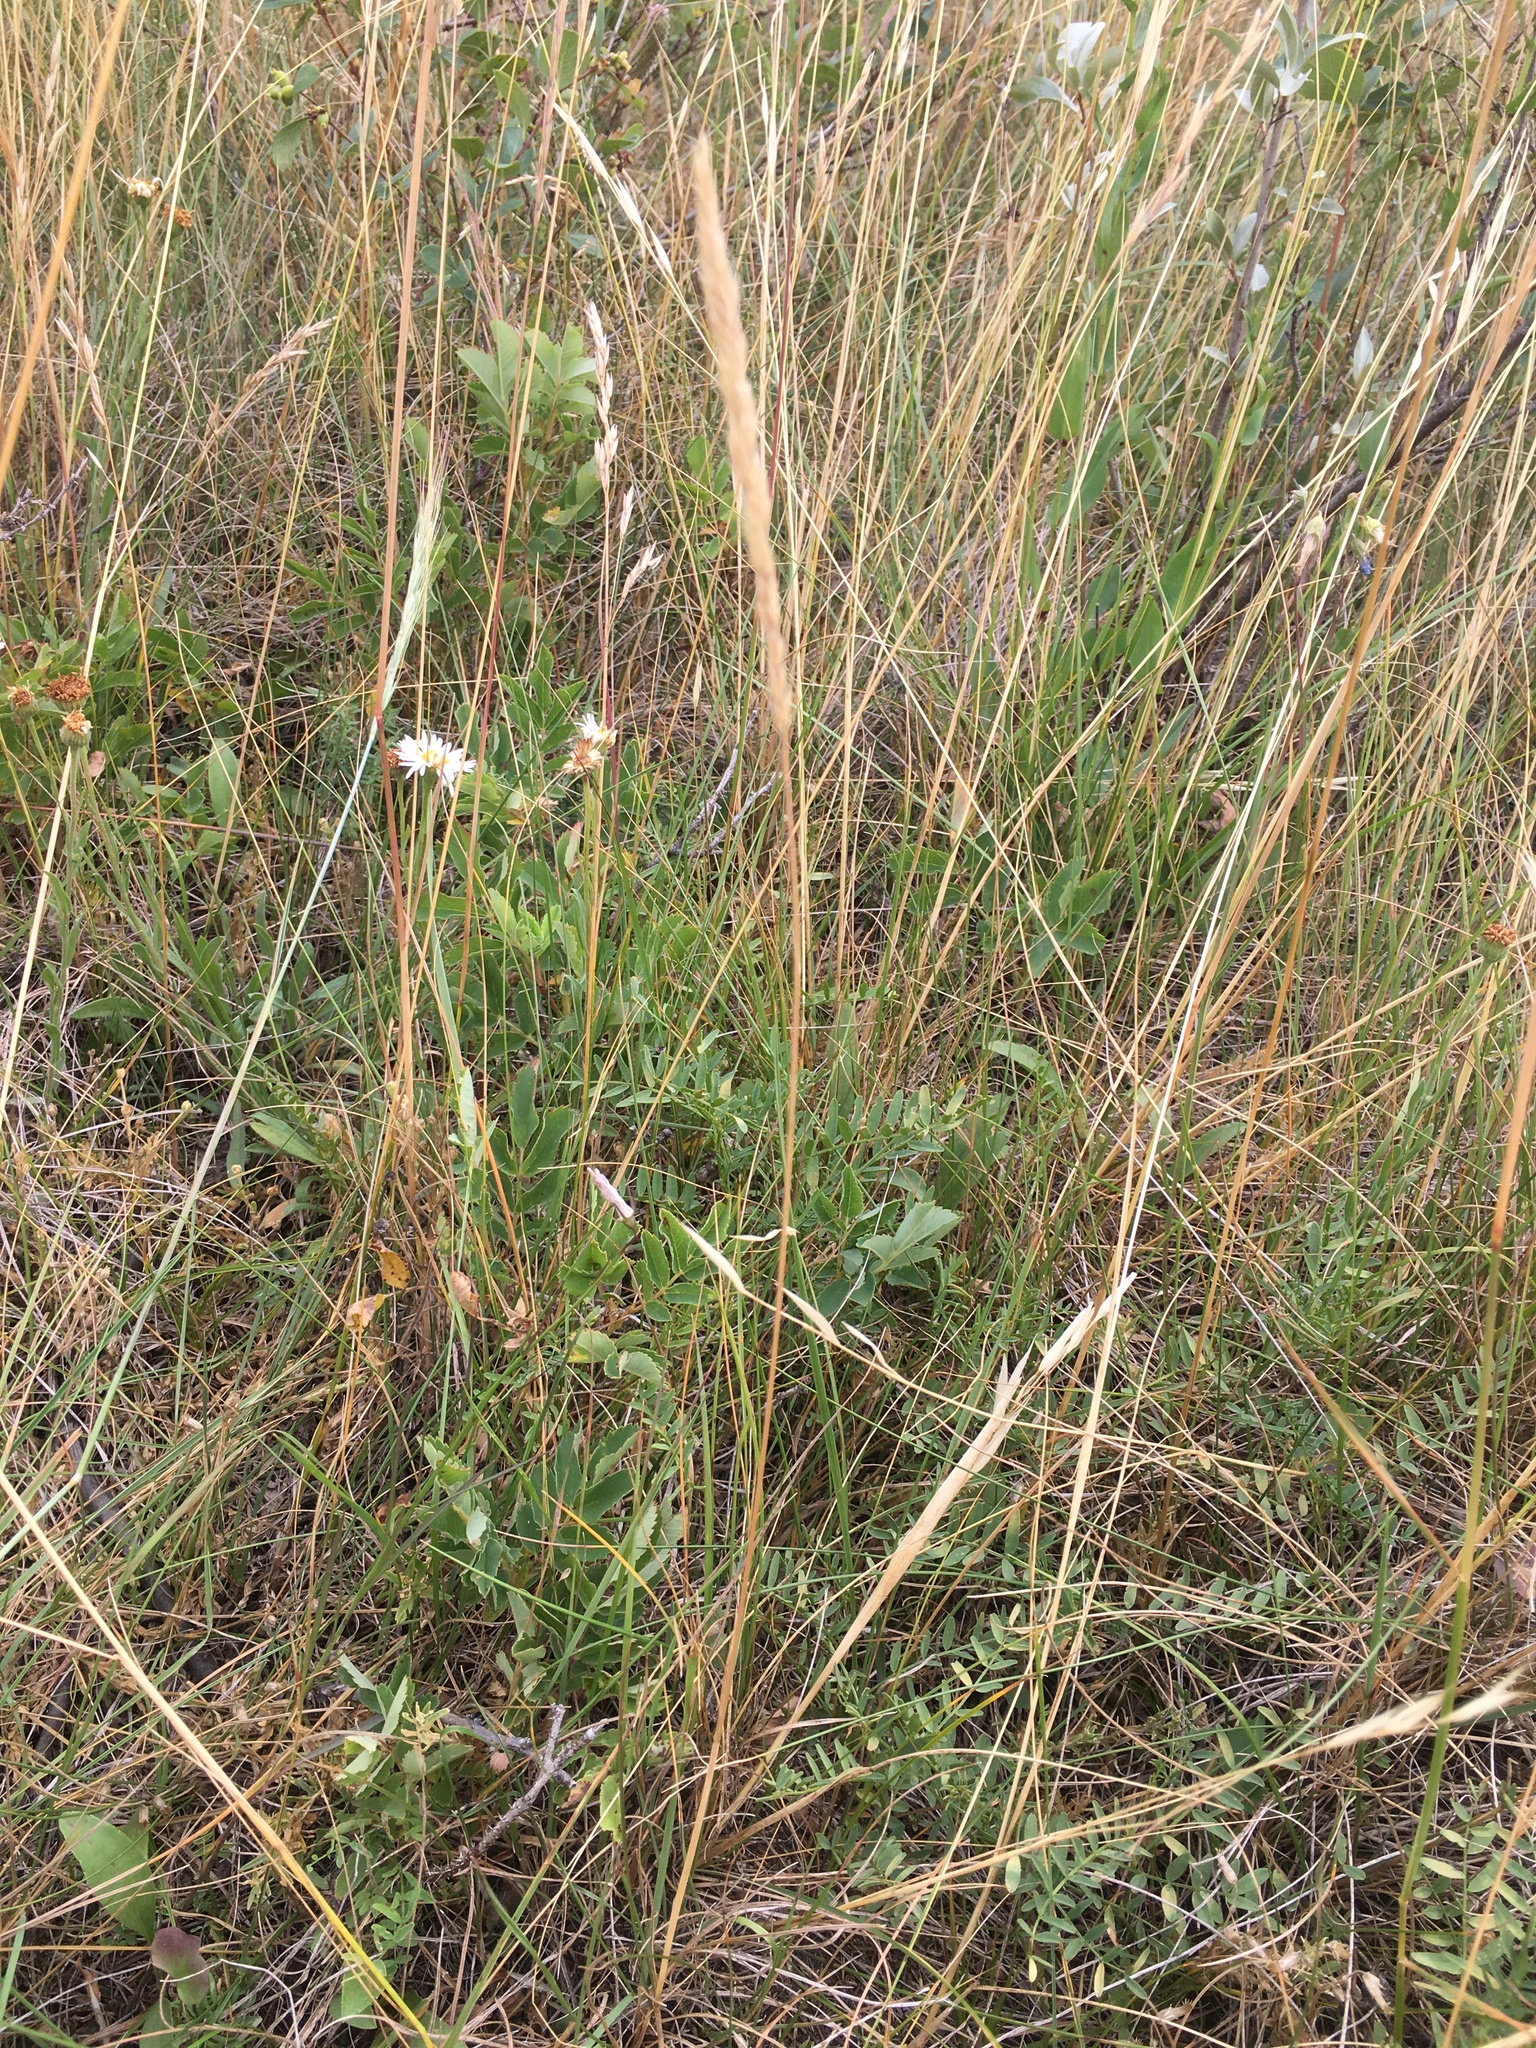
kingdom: Plantae
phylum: Tracheophyta
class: Liliopsida
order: Poales
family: Poaceae
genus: Koeleria
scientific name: Koeleria macrantha
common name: Crested hair-grass
